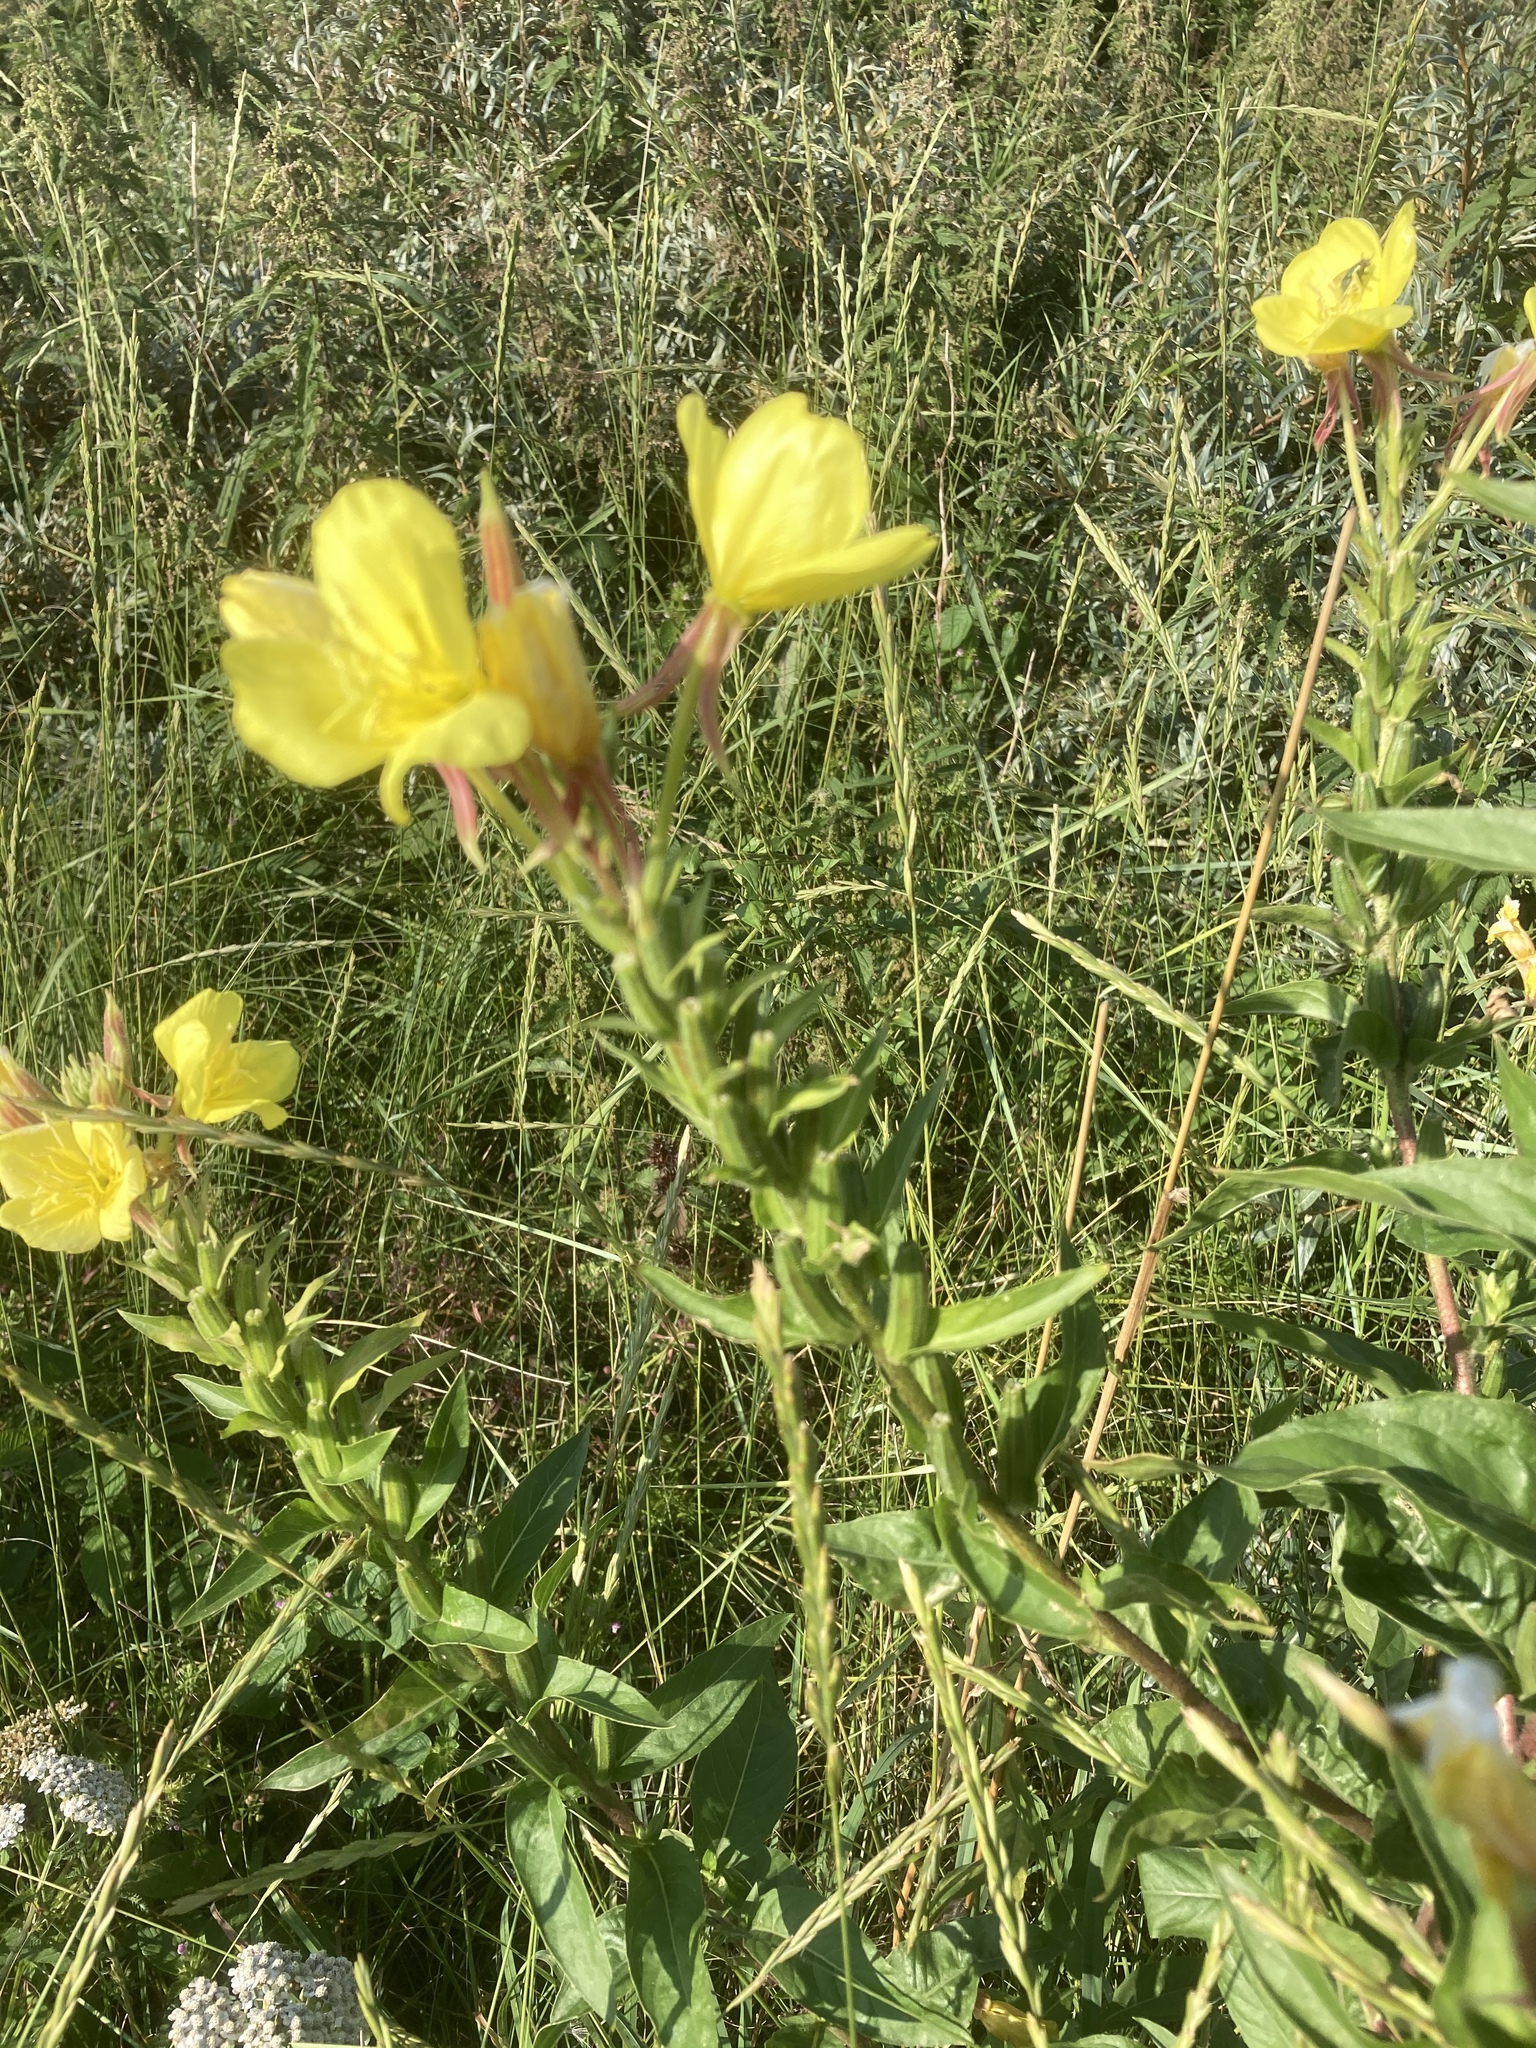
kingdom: Plantae
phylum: Tracheophyta
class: Magnoliopsida
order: Myrtales
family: Onagraceae
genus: Oenothera
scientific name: Oenothera glazioviana
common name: Large-flowered evening-primrose
